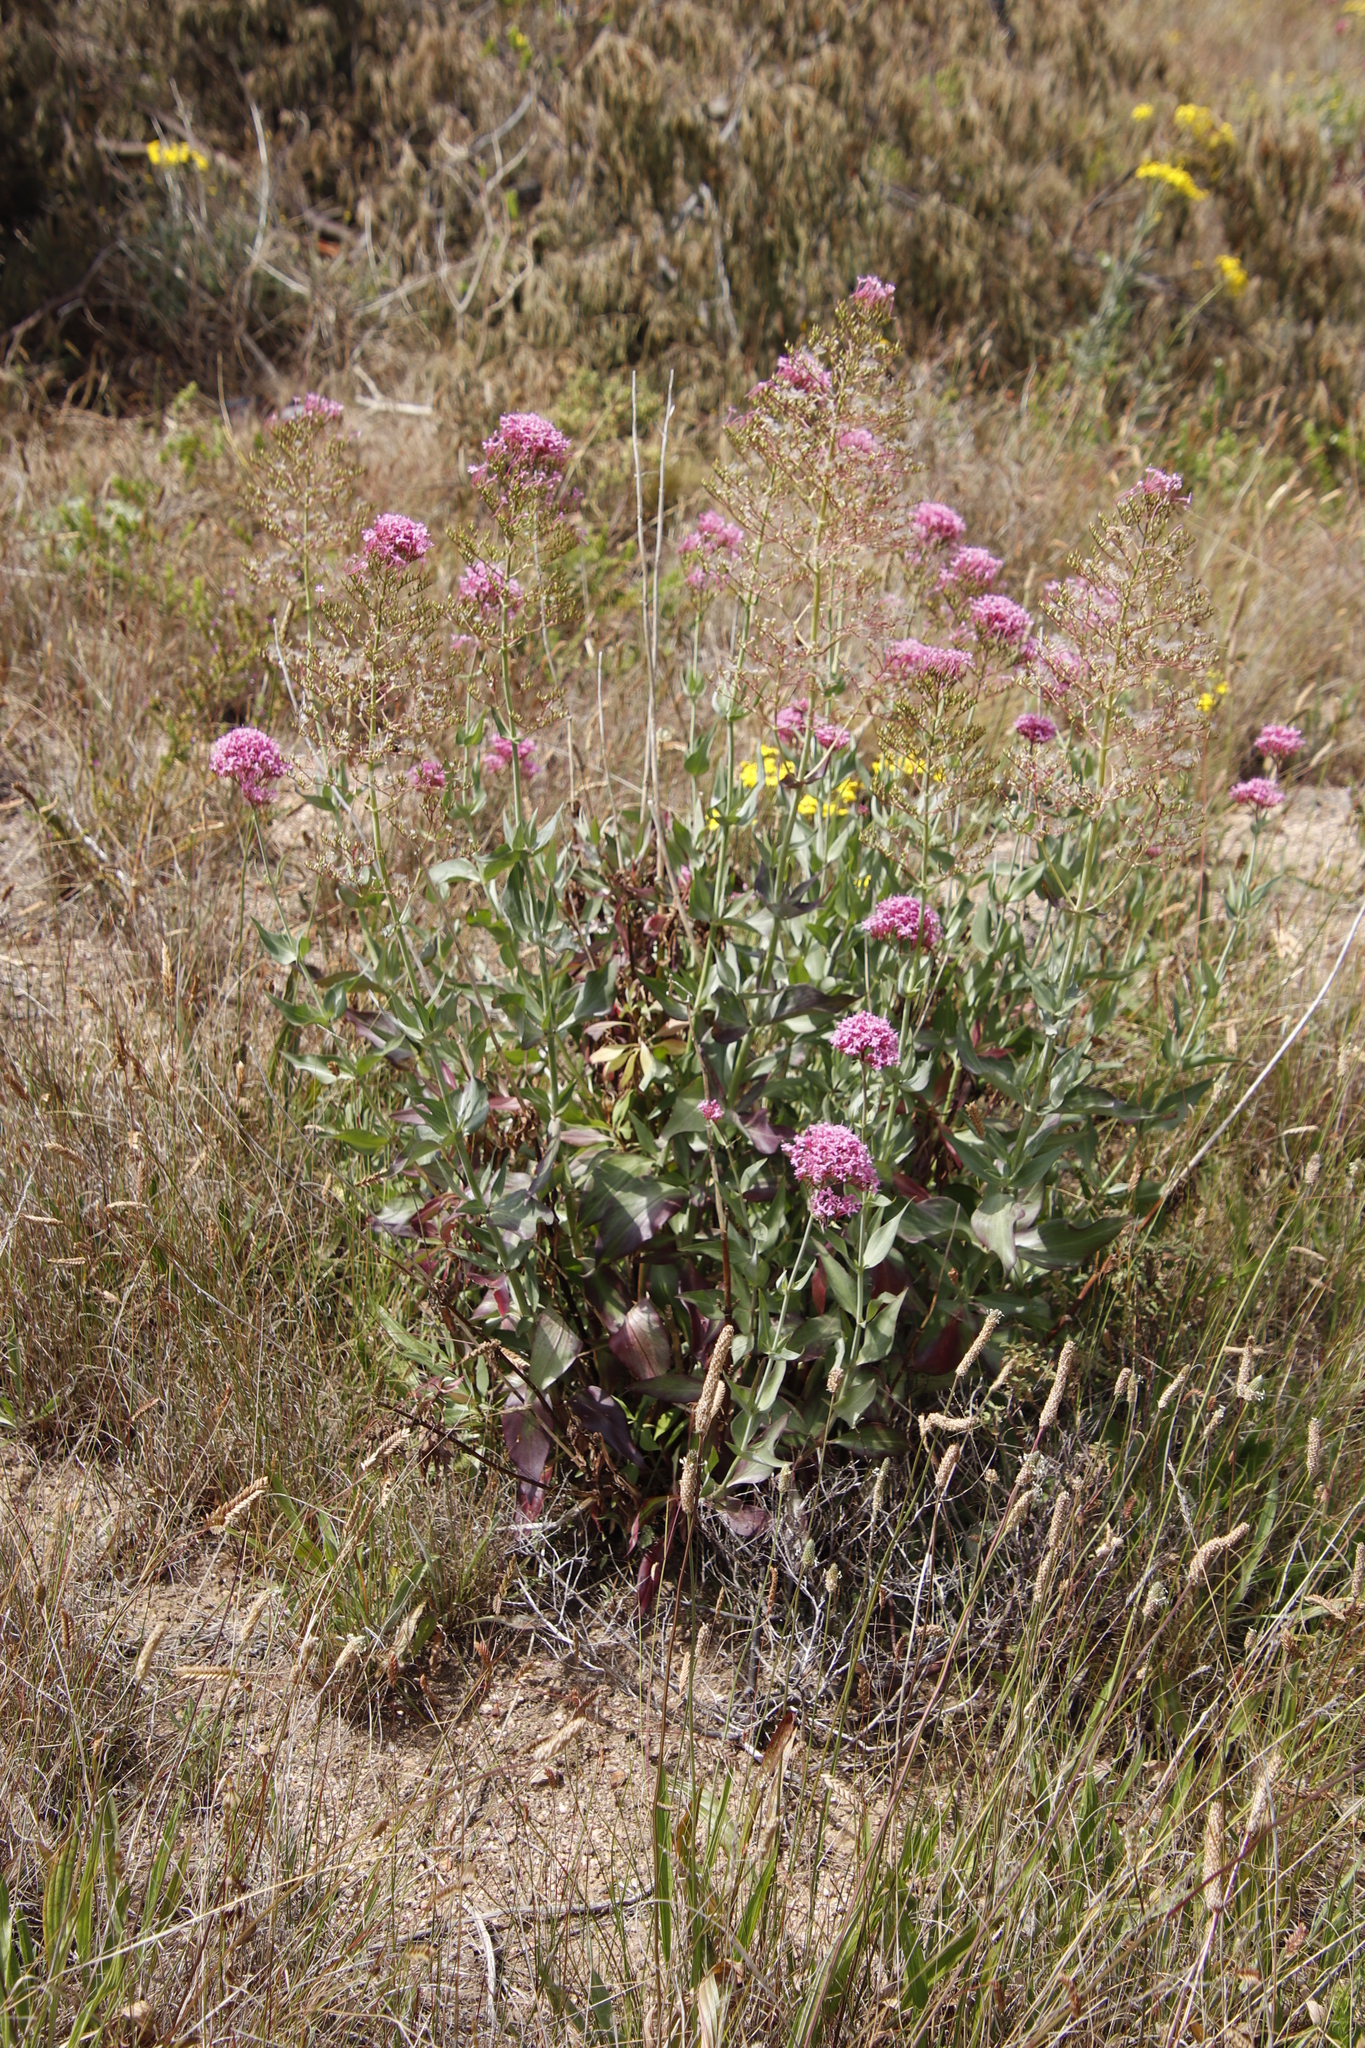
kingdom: Plantae
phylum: Tracheophyta
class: Magnoliopsida
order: Dipsacales
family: Caprifoliaceae
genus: Centranthus
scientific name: Centranthus ruber
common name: Red valerian
